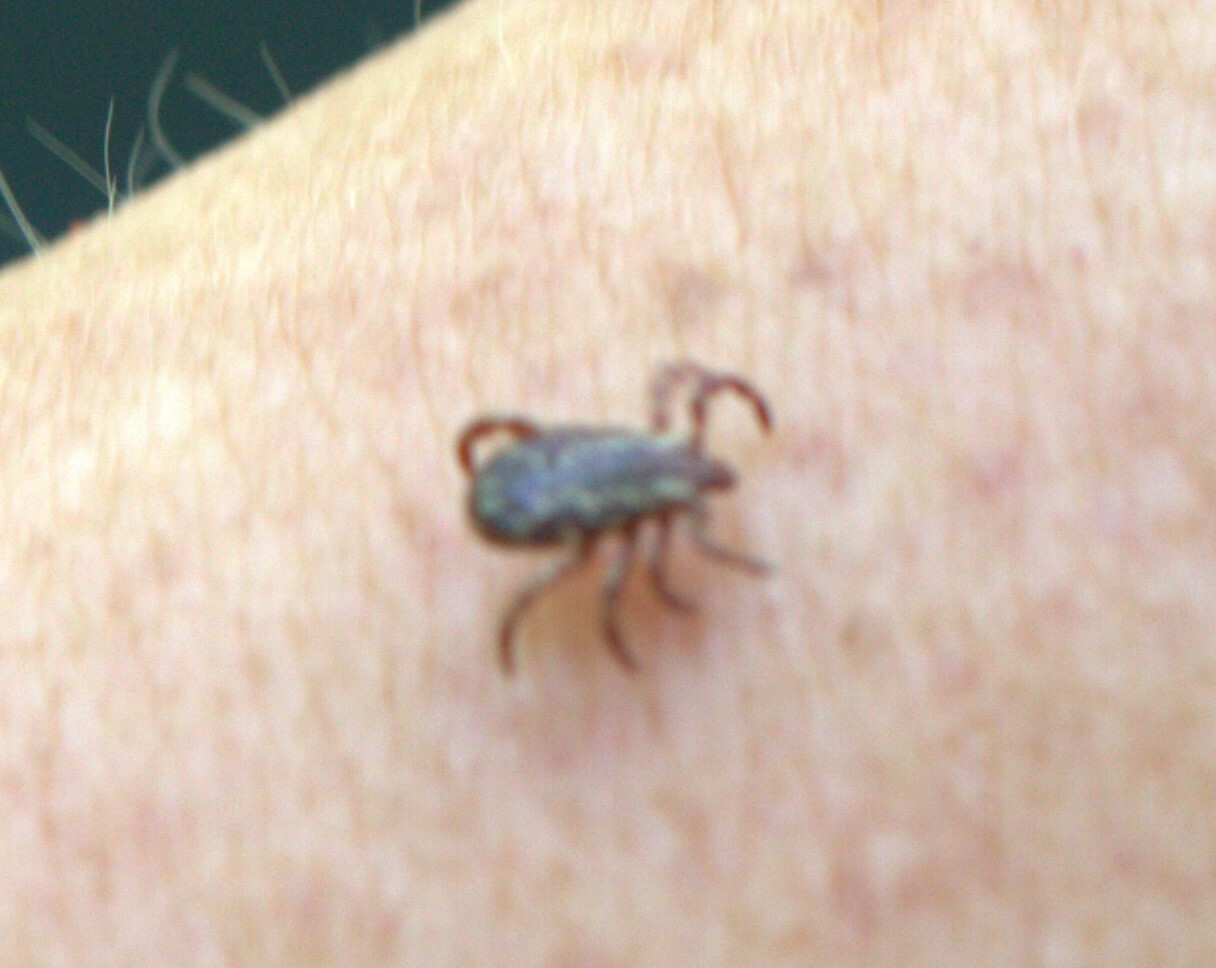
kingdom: Animalia
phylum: Arthropoda
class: Arachnida
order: Ixodida
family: Ixodidae
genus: Dermacentor
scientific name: Dermacentor variabilis
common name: American dog tick
